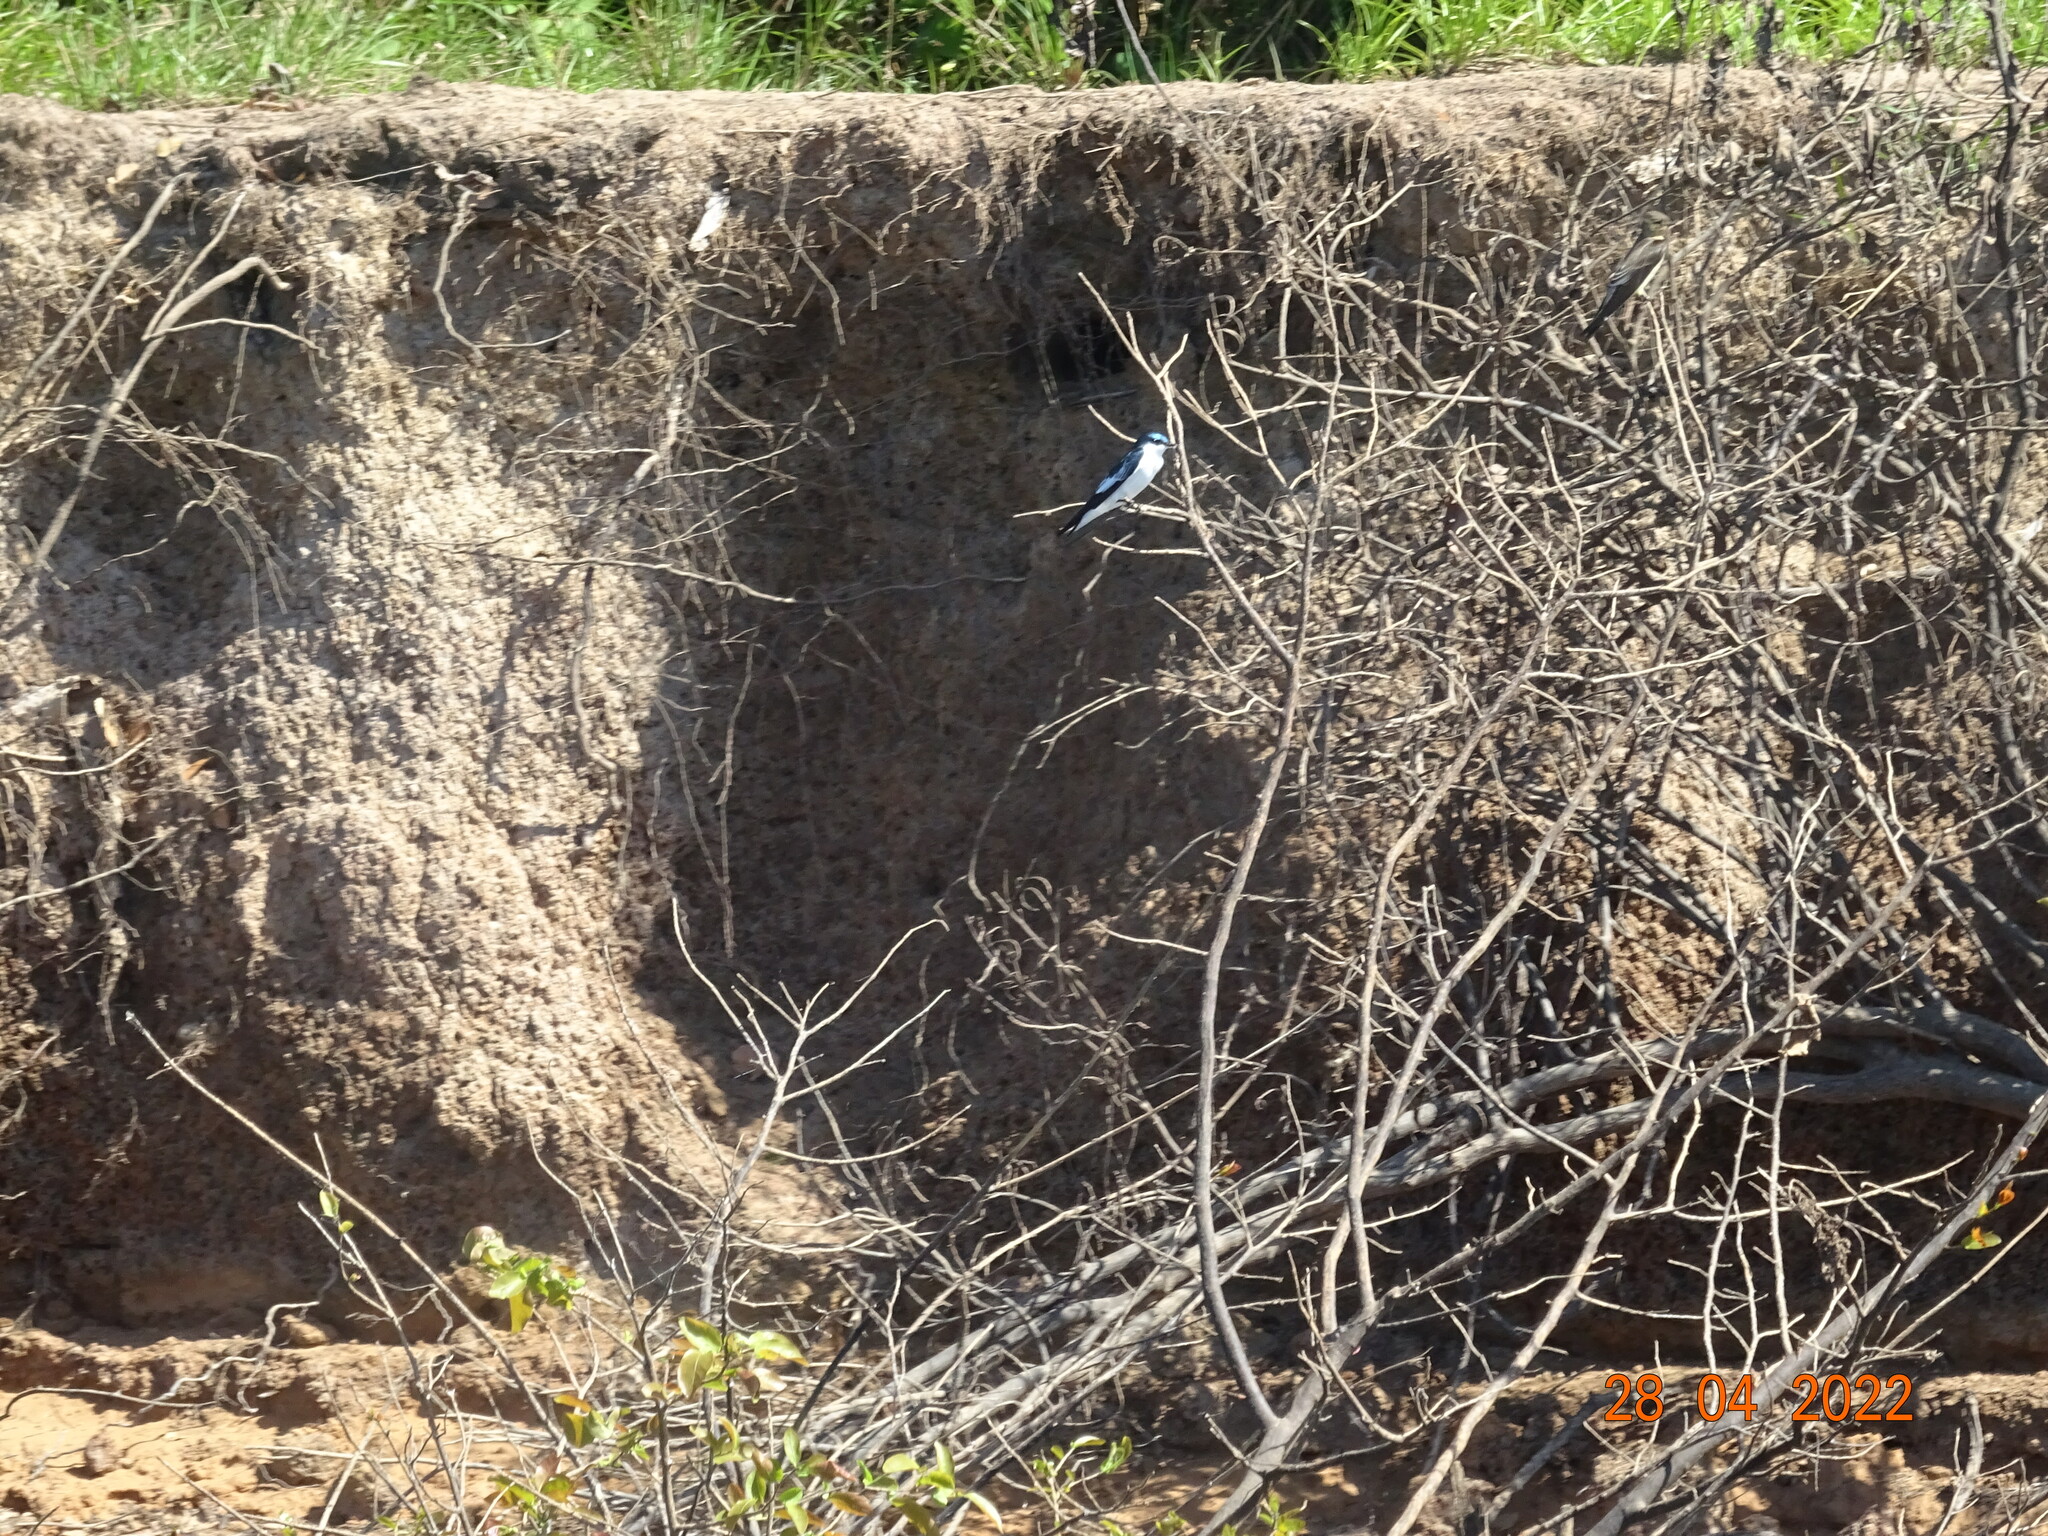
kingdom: Animalia
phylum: Chordata
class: Aves
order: Passeriformes
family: Hirundinidae
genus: Tachycineta
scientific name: Tachycineta albiventer
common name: White-winged swallow
